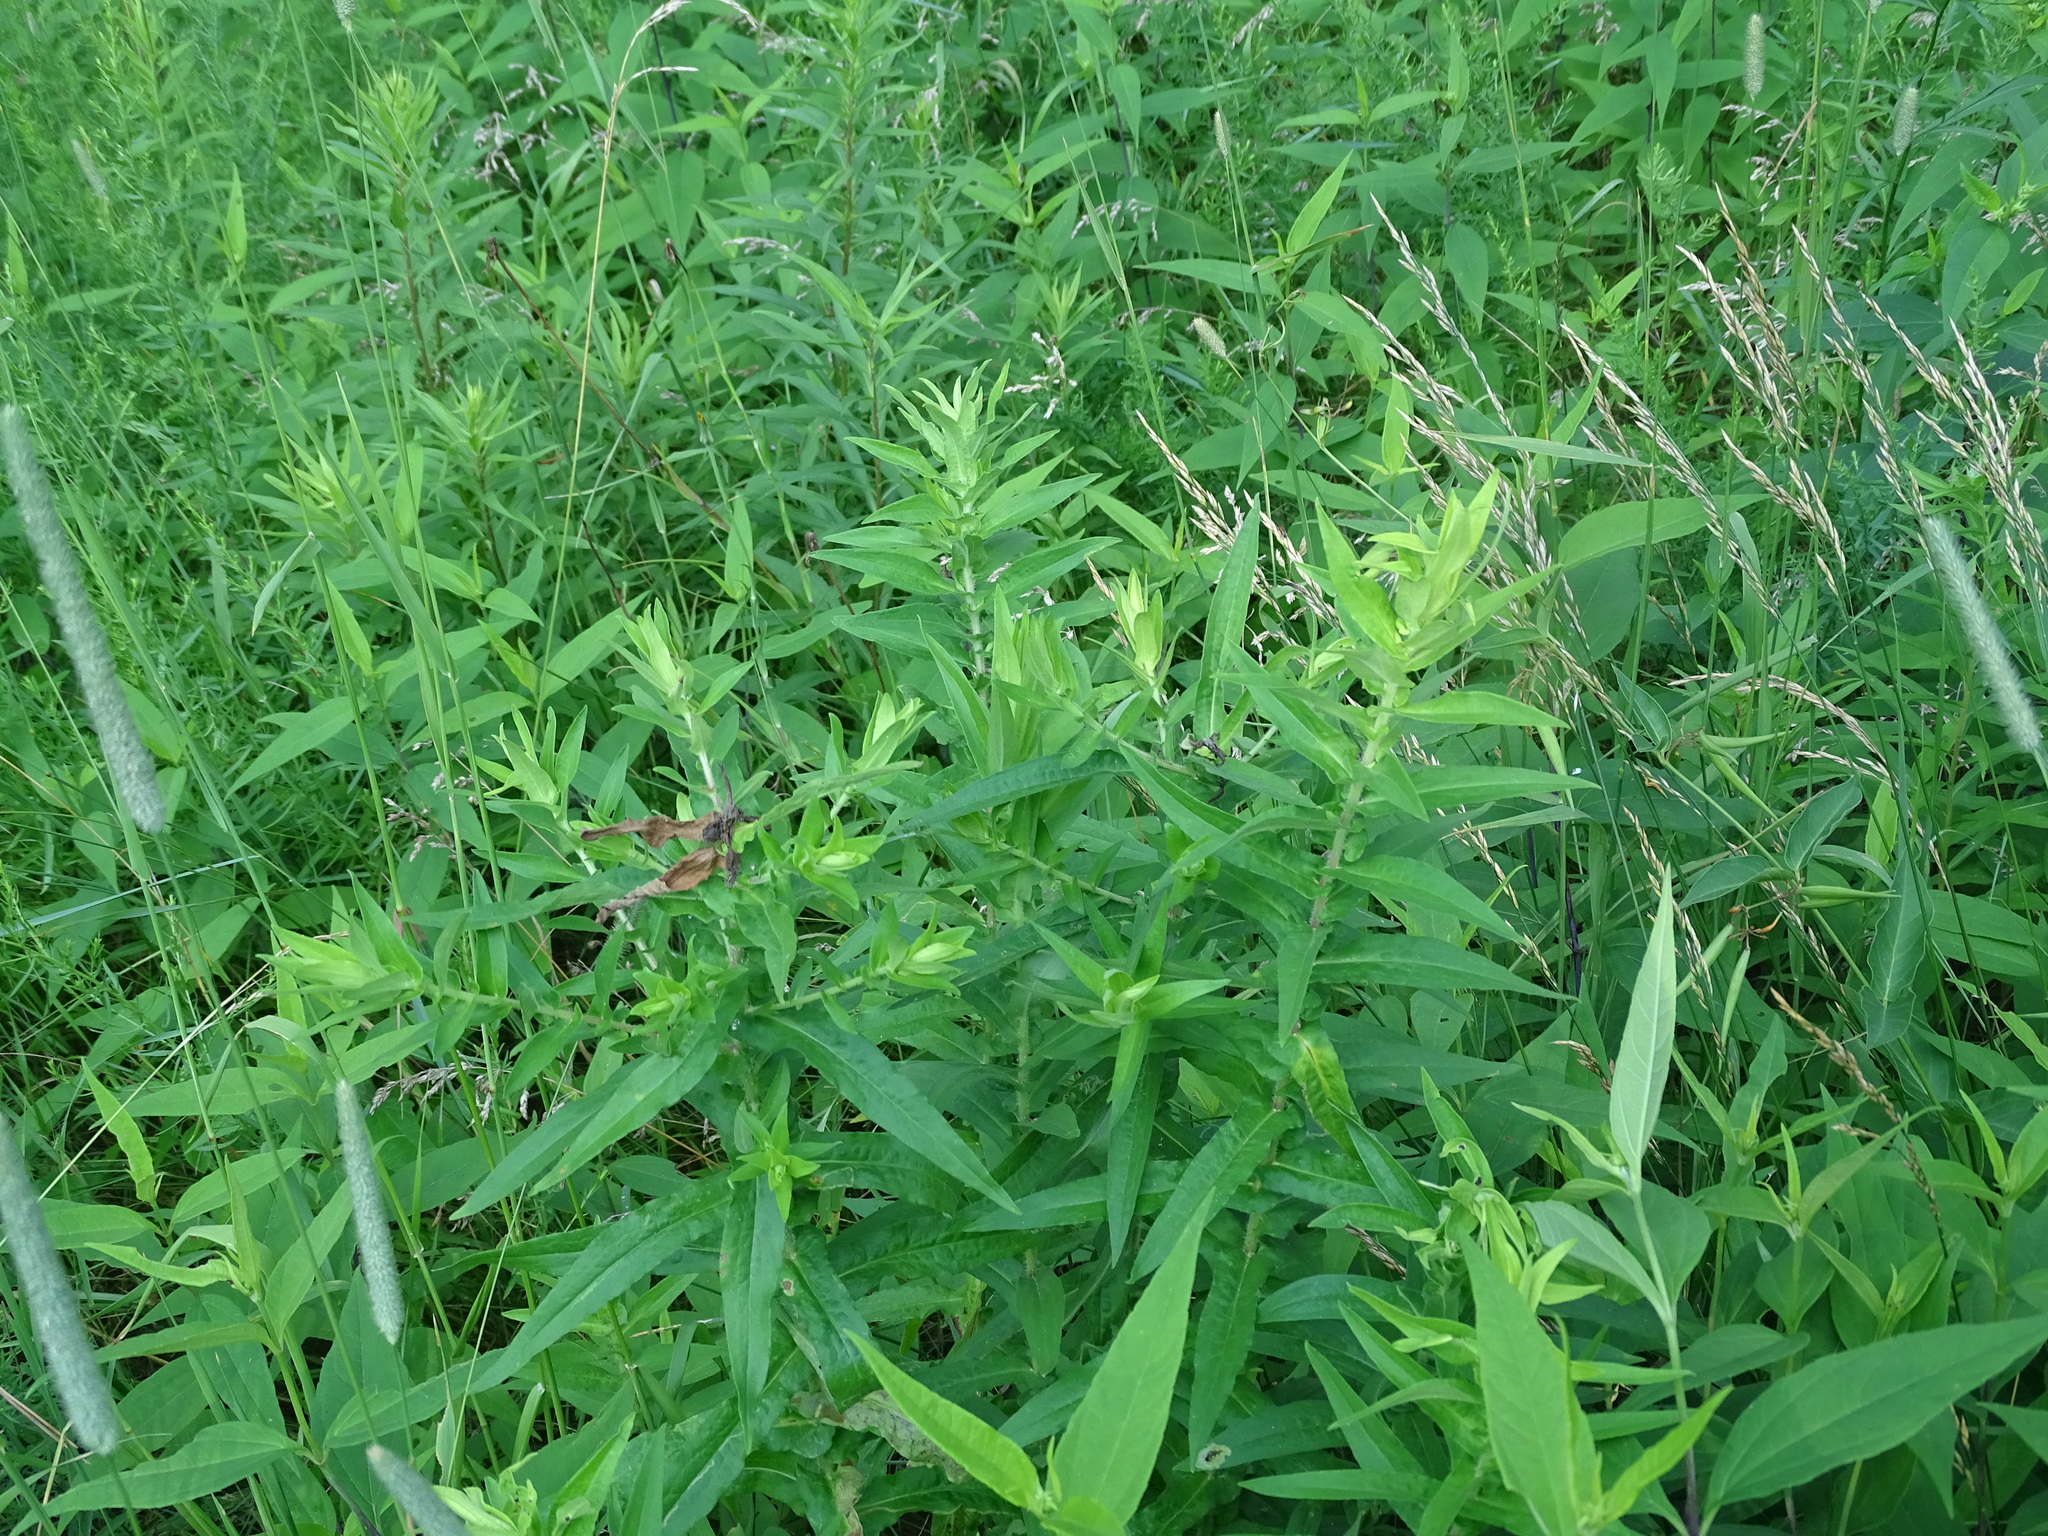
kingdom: Plantae
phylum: Tracheophyta
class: Magnoliopsida
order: Asterales
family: Asteraceae
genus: Symphyotrichum
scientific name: Symphyotrichum novae-angliae
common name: Michaelmas daisy
